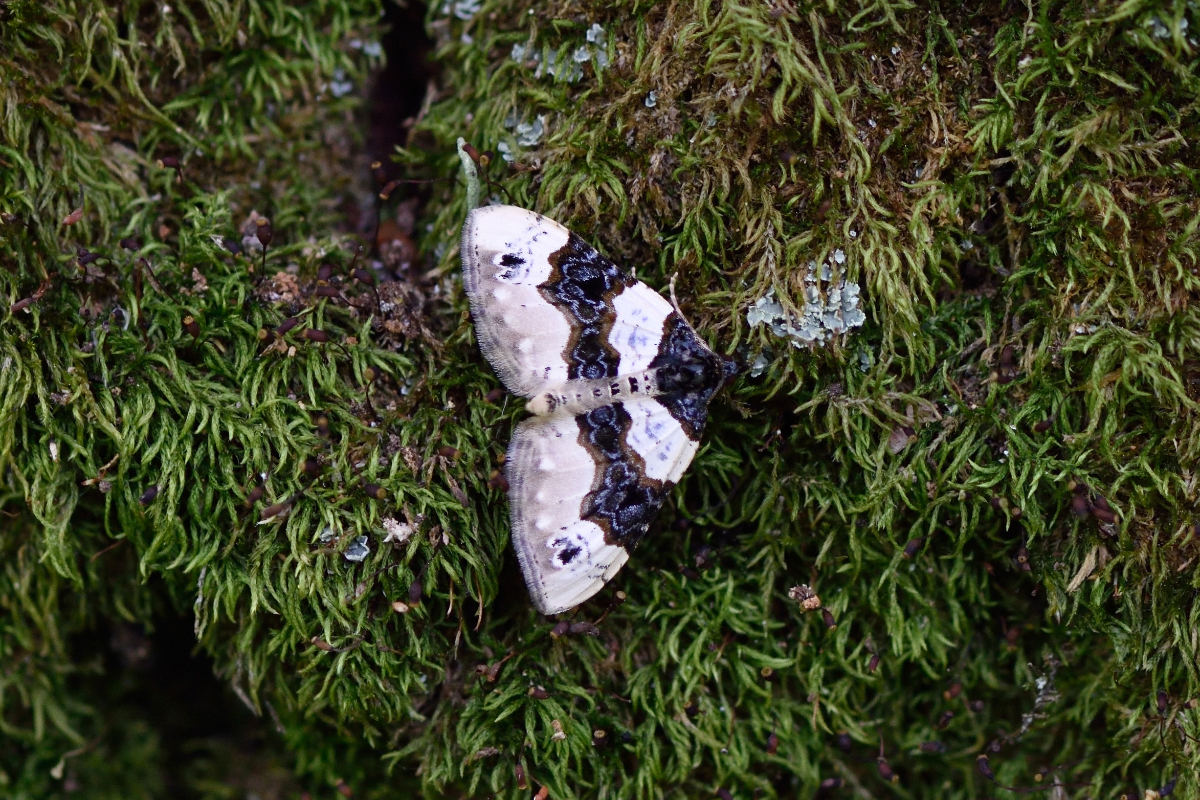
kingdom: Animalia
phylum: Arthropoda
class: Insecta
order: Lepidoptera
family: Geometridae
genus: Cosmorhoe
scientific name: Cosmorhoe ocellata
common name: Purple bar
